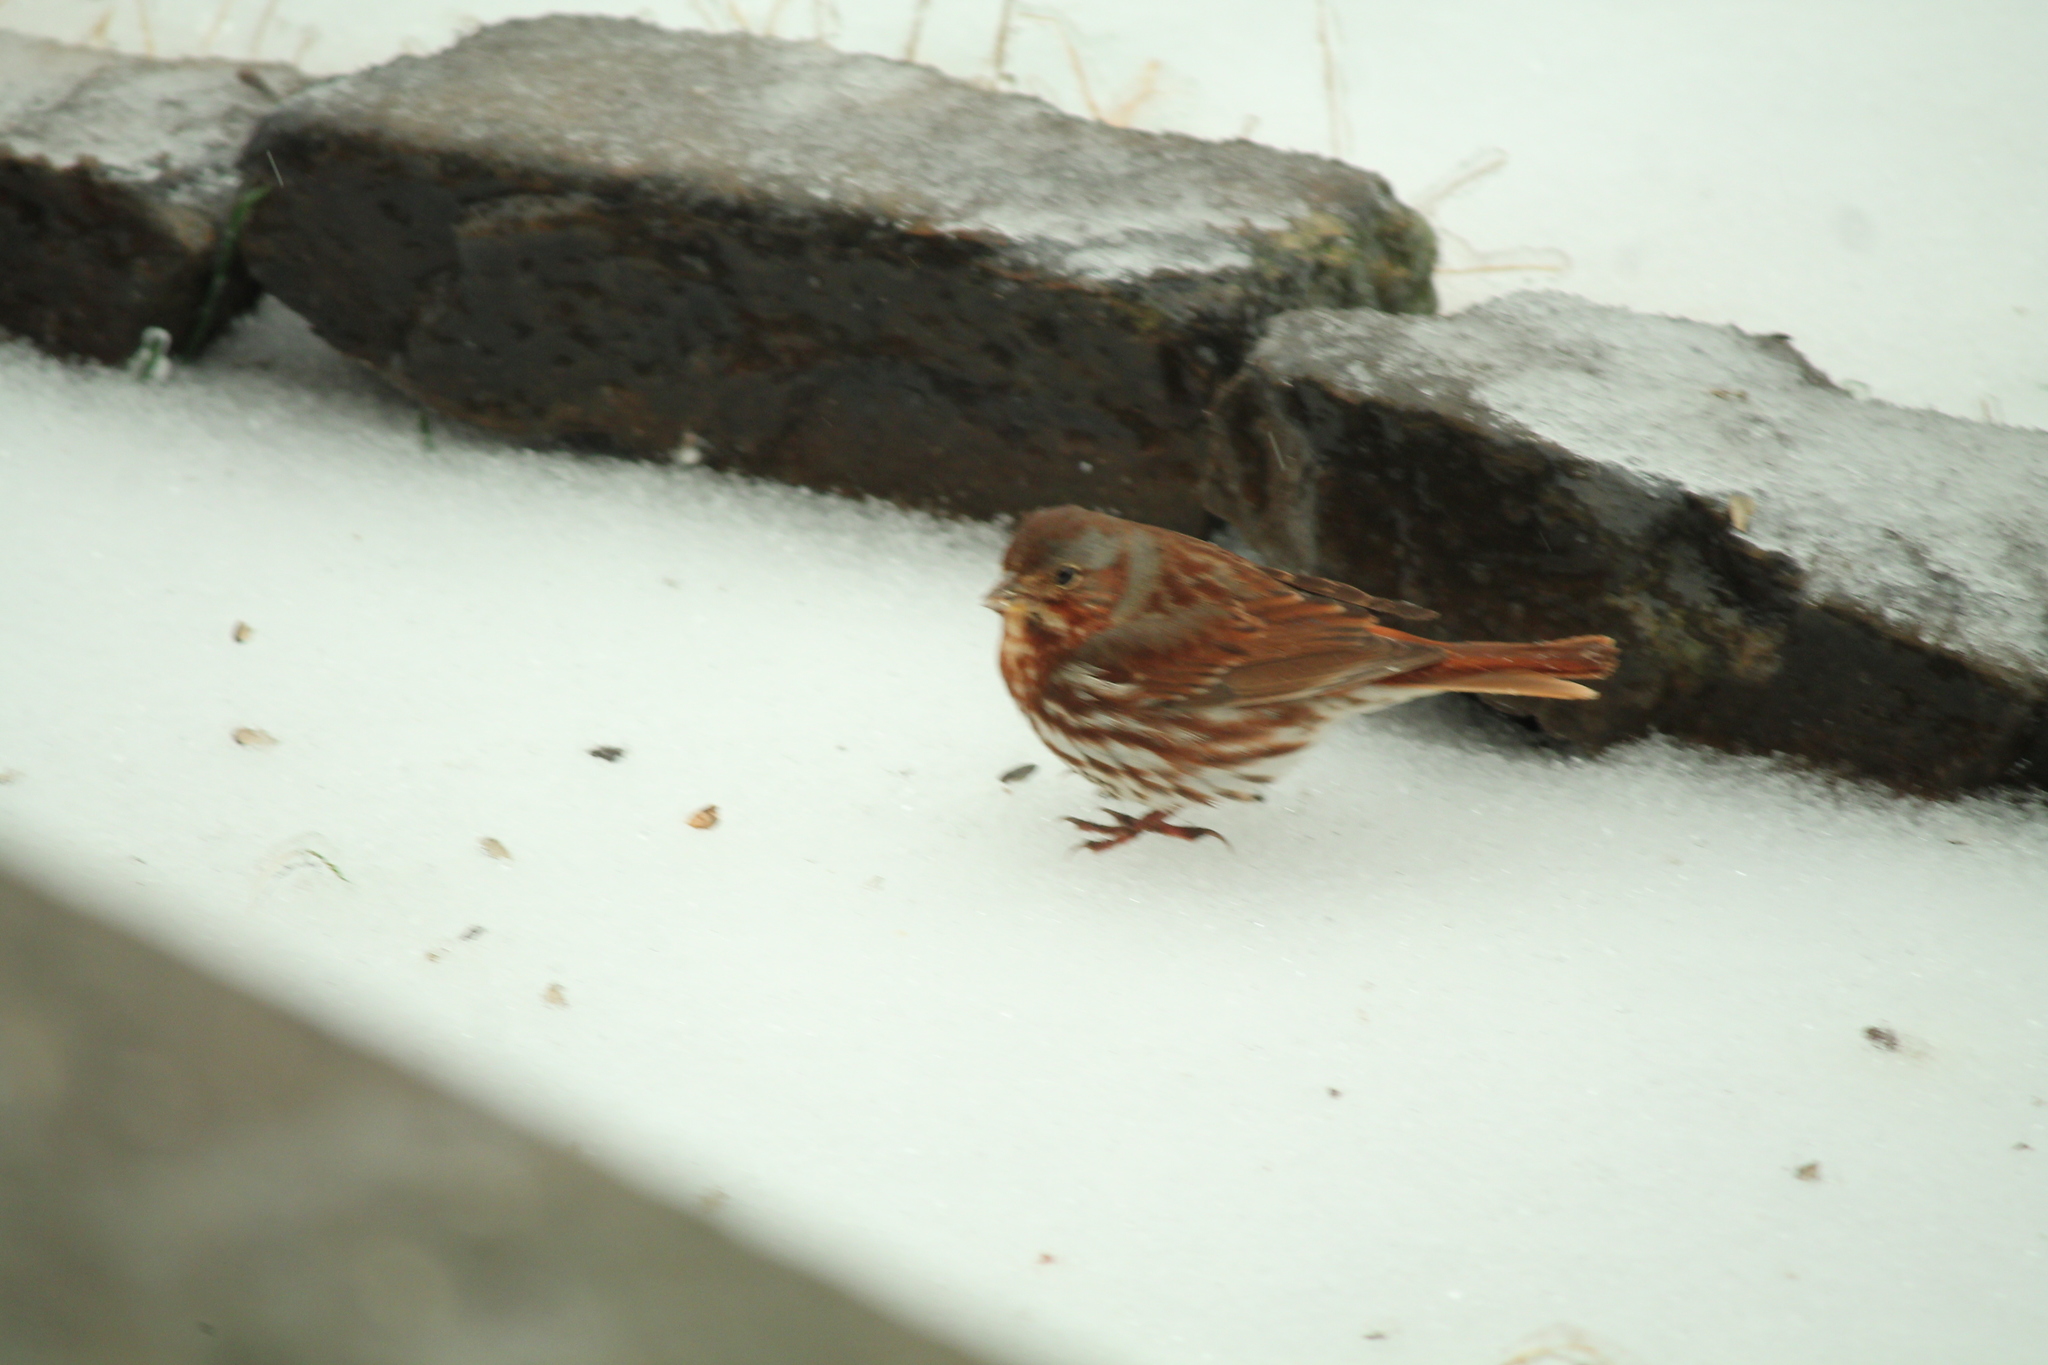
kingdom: Animalia
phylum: Chordata
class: Aves
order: Passeriformes
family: Passerellidae
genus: Passerella
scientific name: Passerella iliaca
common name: Fox sparrow
